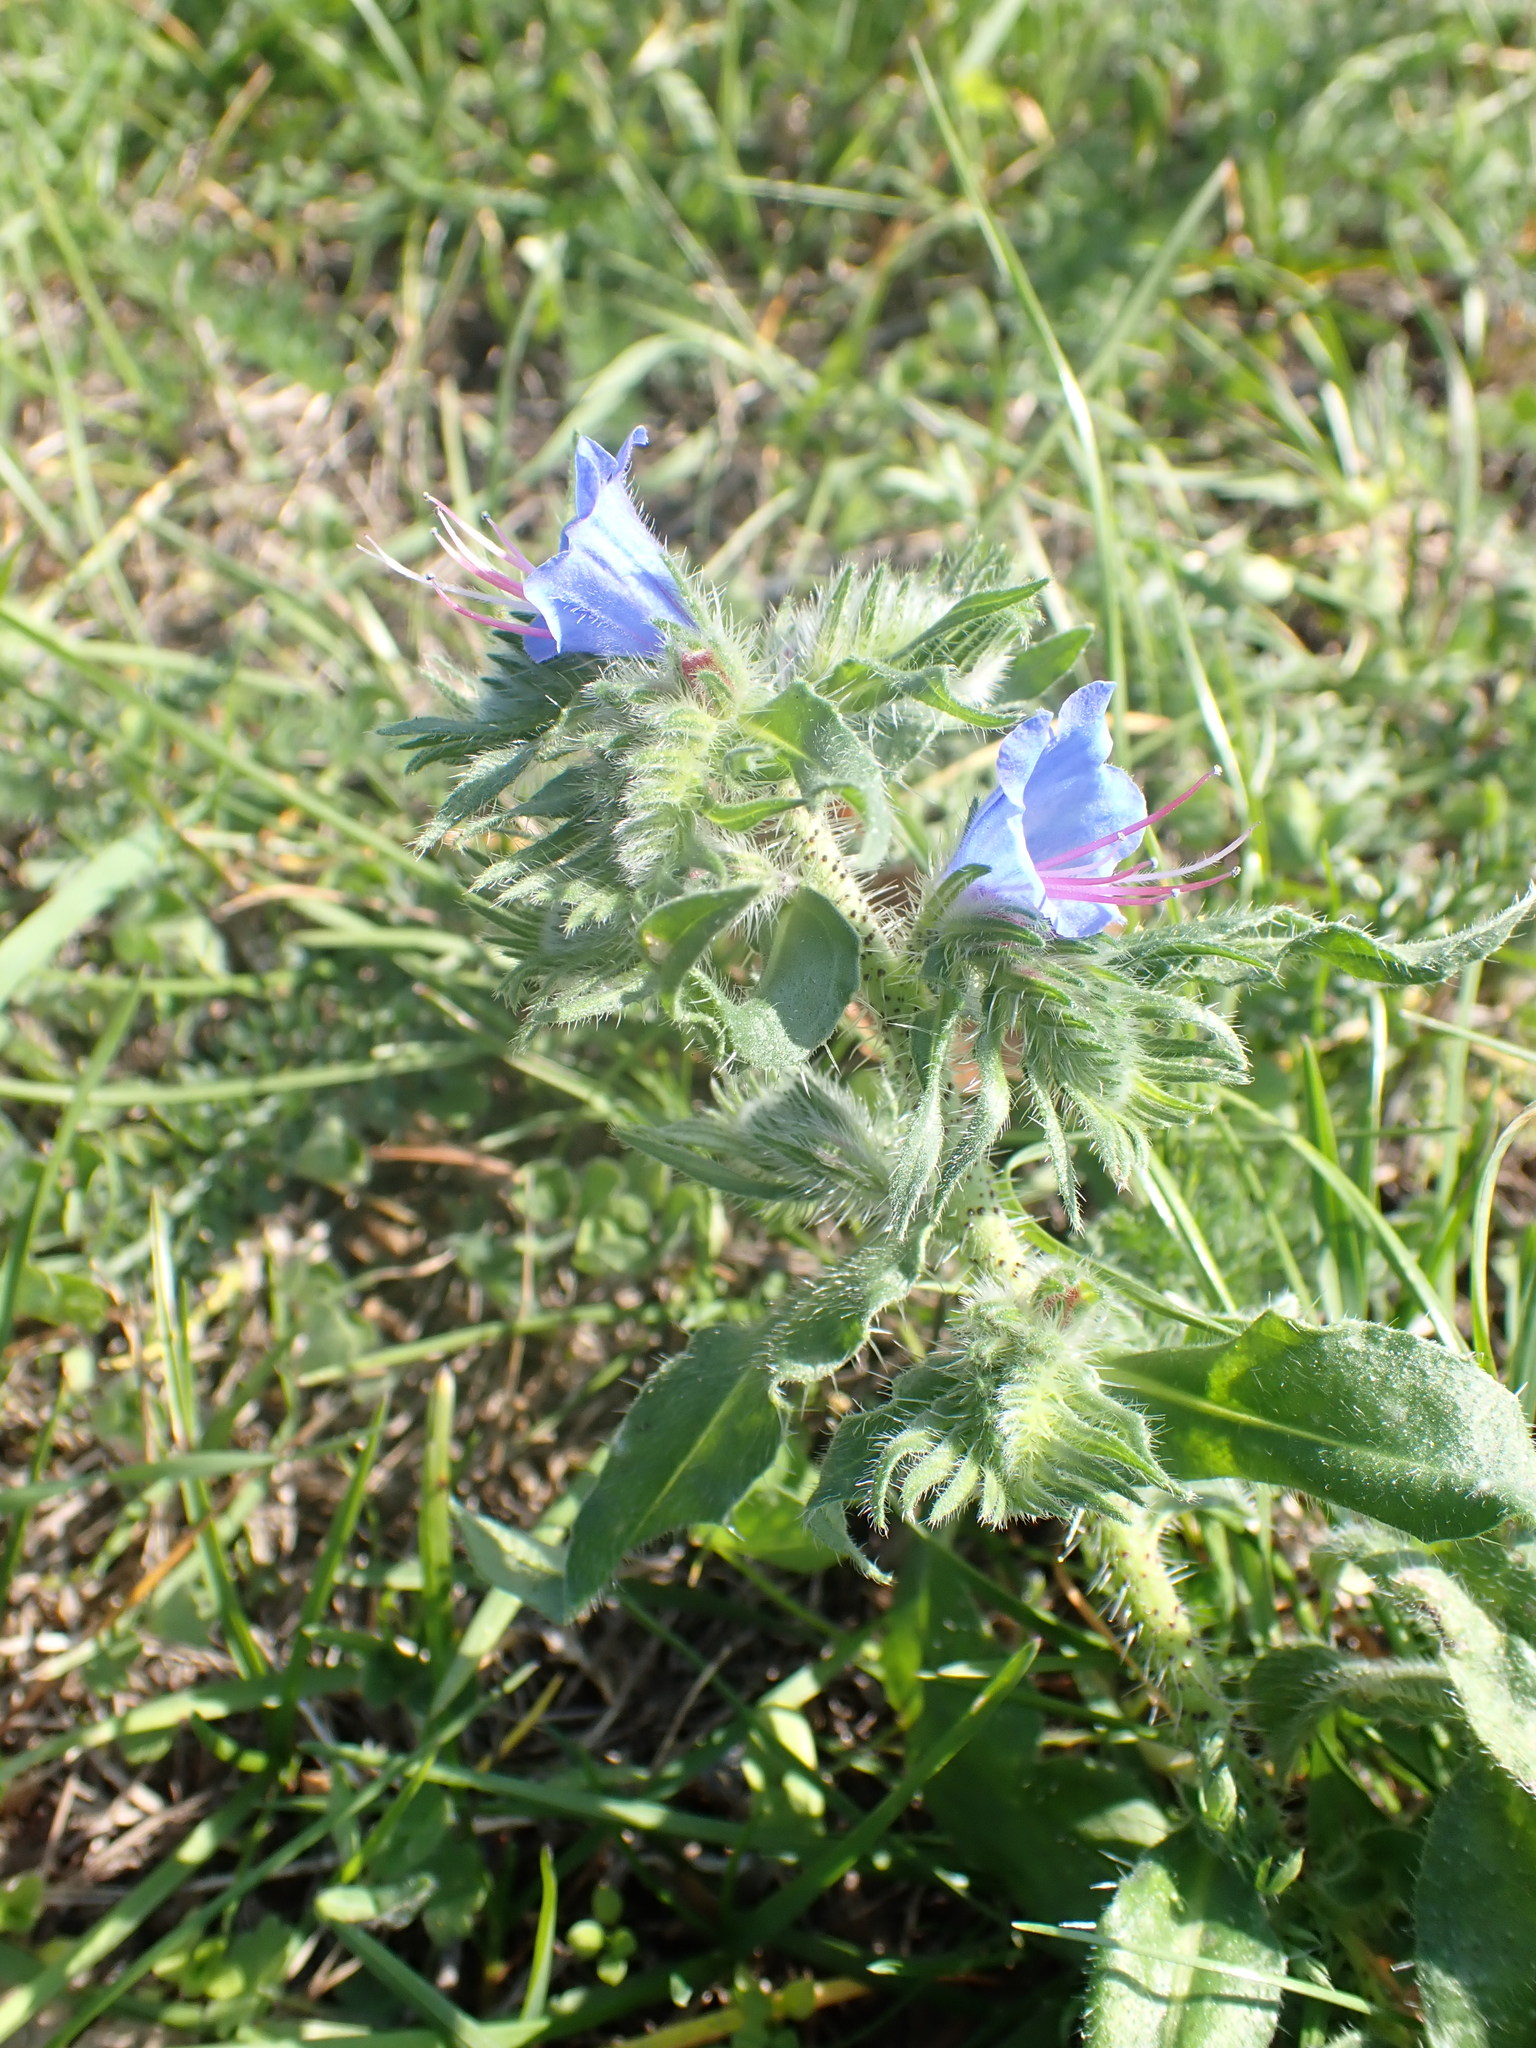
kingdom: Plantae
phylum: Tracheophyta
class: Magnoliopsida
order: Boraginales
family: Boraginaceae
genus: Echium
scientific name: Echium vulgare
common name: Common viper's bugloss
